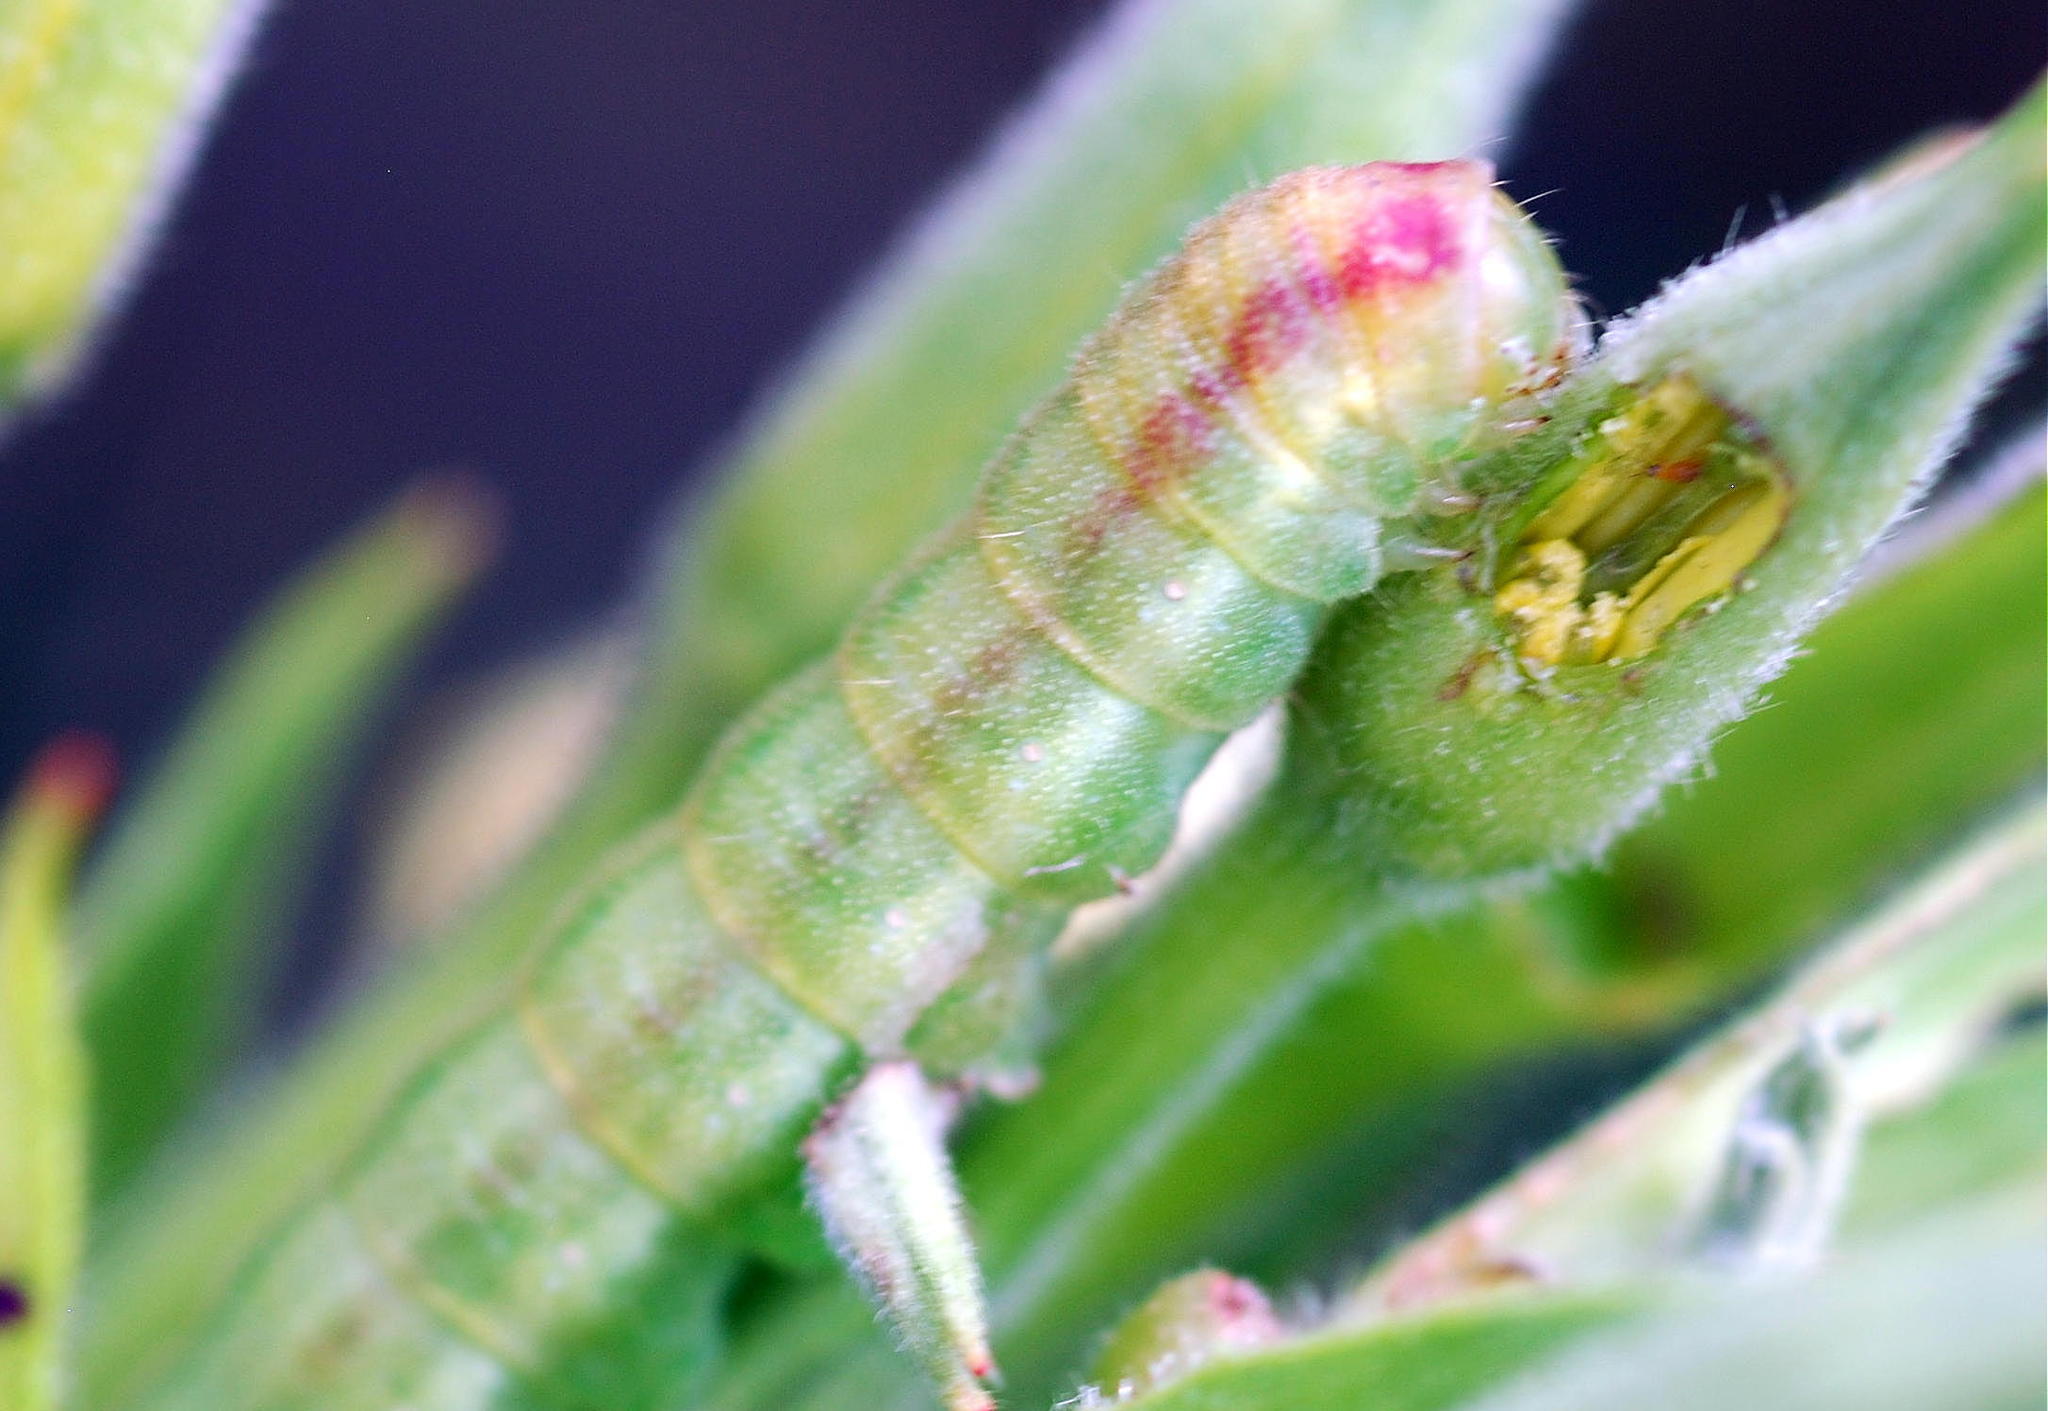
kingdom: Animalia
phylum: Arthropoda
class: Insecta
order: Lepidoptera
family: Noctuidae
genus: Schinia
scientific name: Schinia florida
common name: Primrose moth
